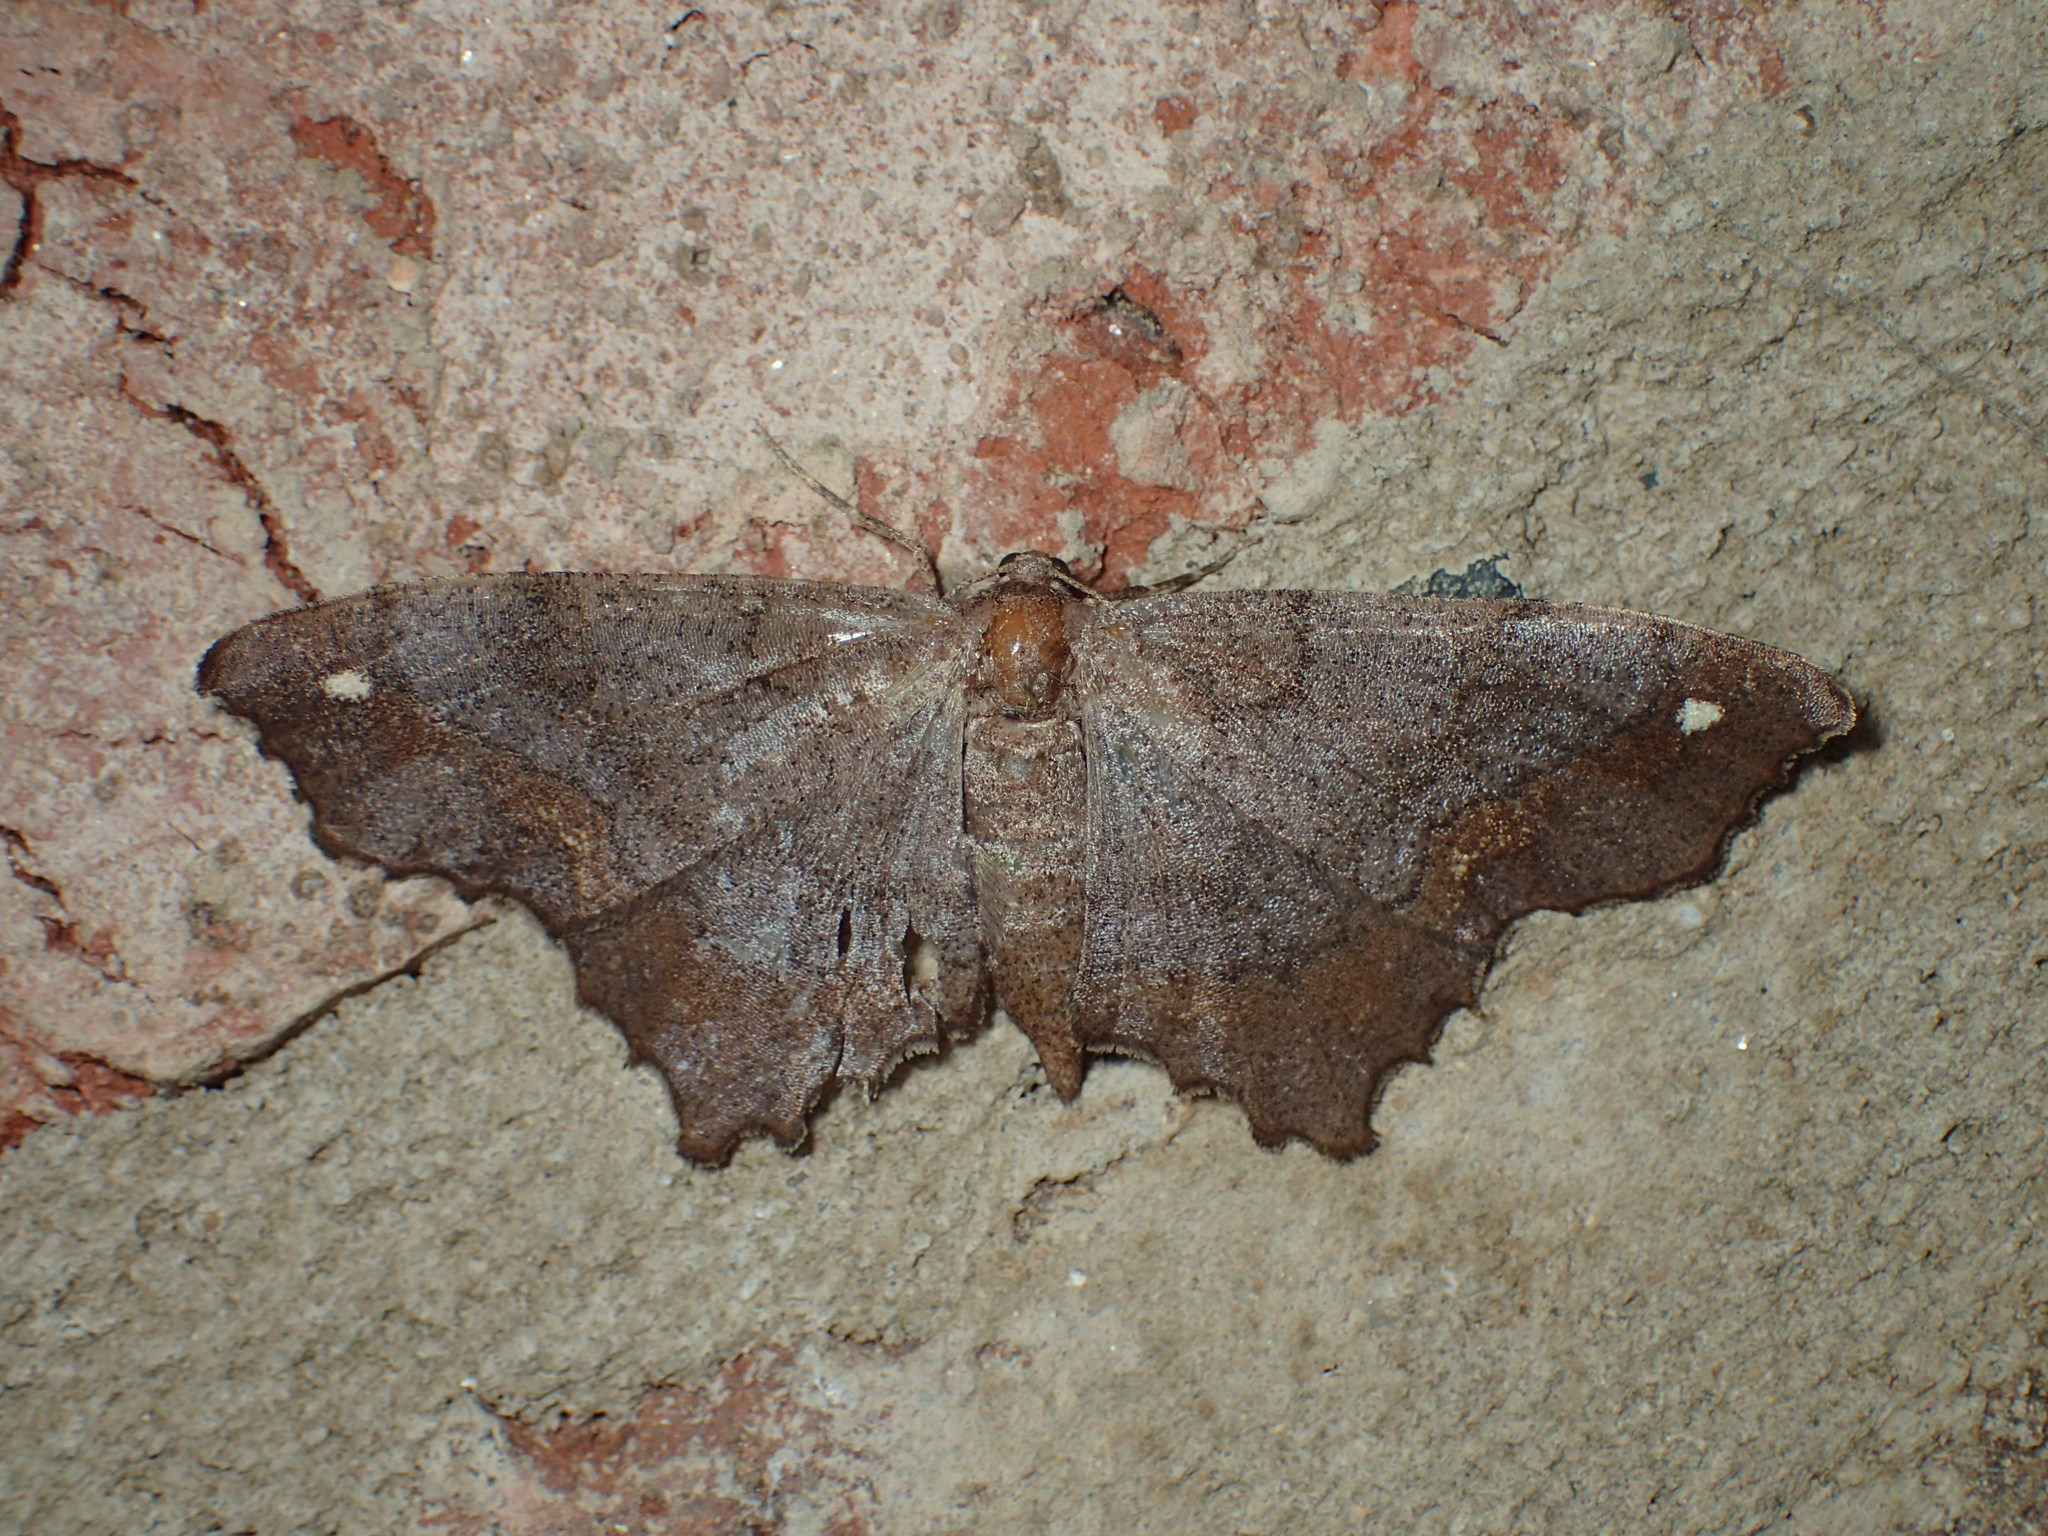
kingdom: Animalia
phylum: Arthropoda
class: Insecta
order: Lepidoptera
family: Geometridae
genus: Hypagyrtis
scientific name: Hypagyrtis unipunctata
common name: One-spotted variant
